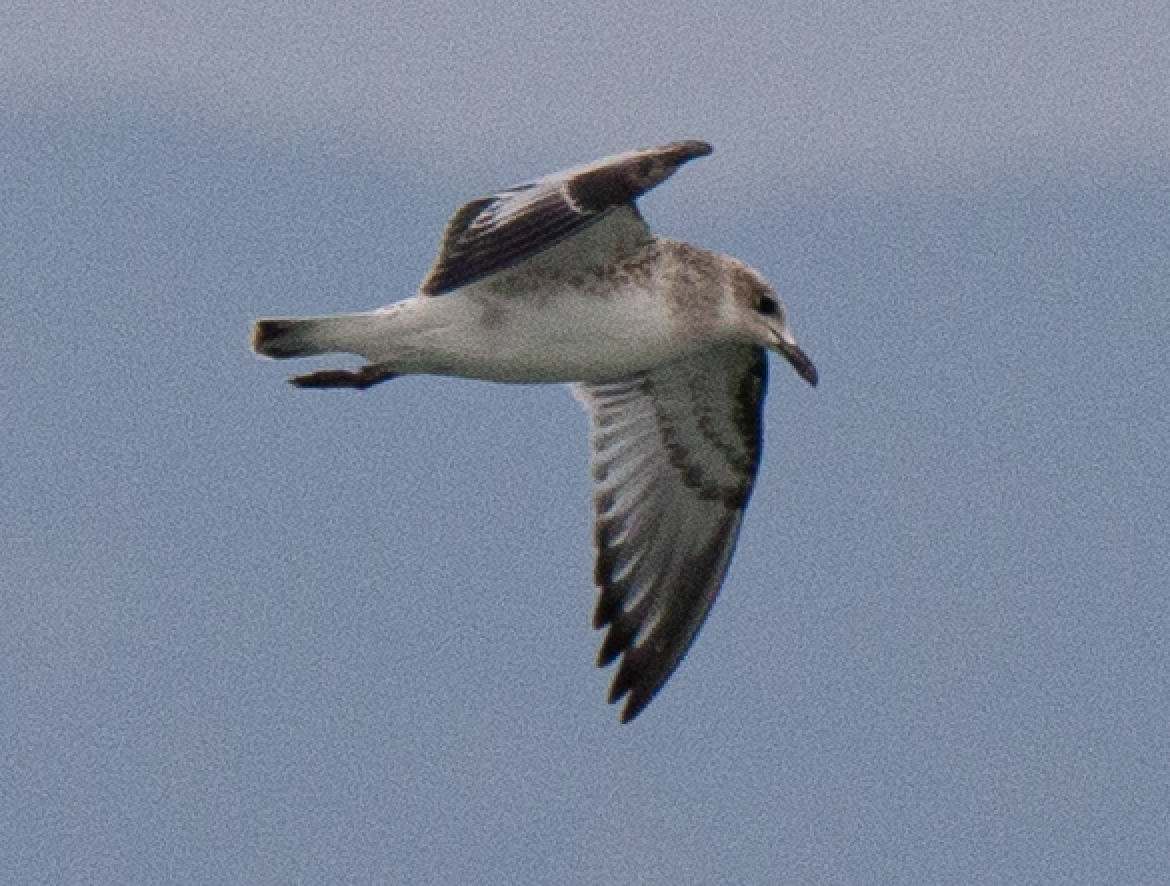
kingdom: Animalia
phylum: Chordata
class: Aves
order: Charadriiformes
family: Laridae
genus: Ichthyaetus
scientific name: Ichthyaetus melanocephalus
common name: Mediterranean gull
